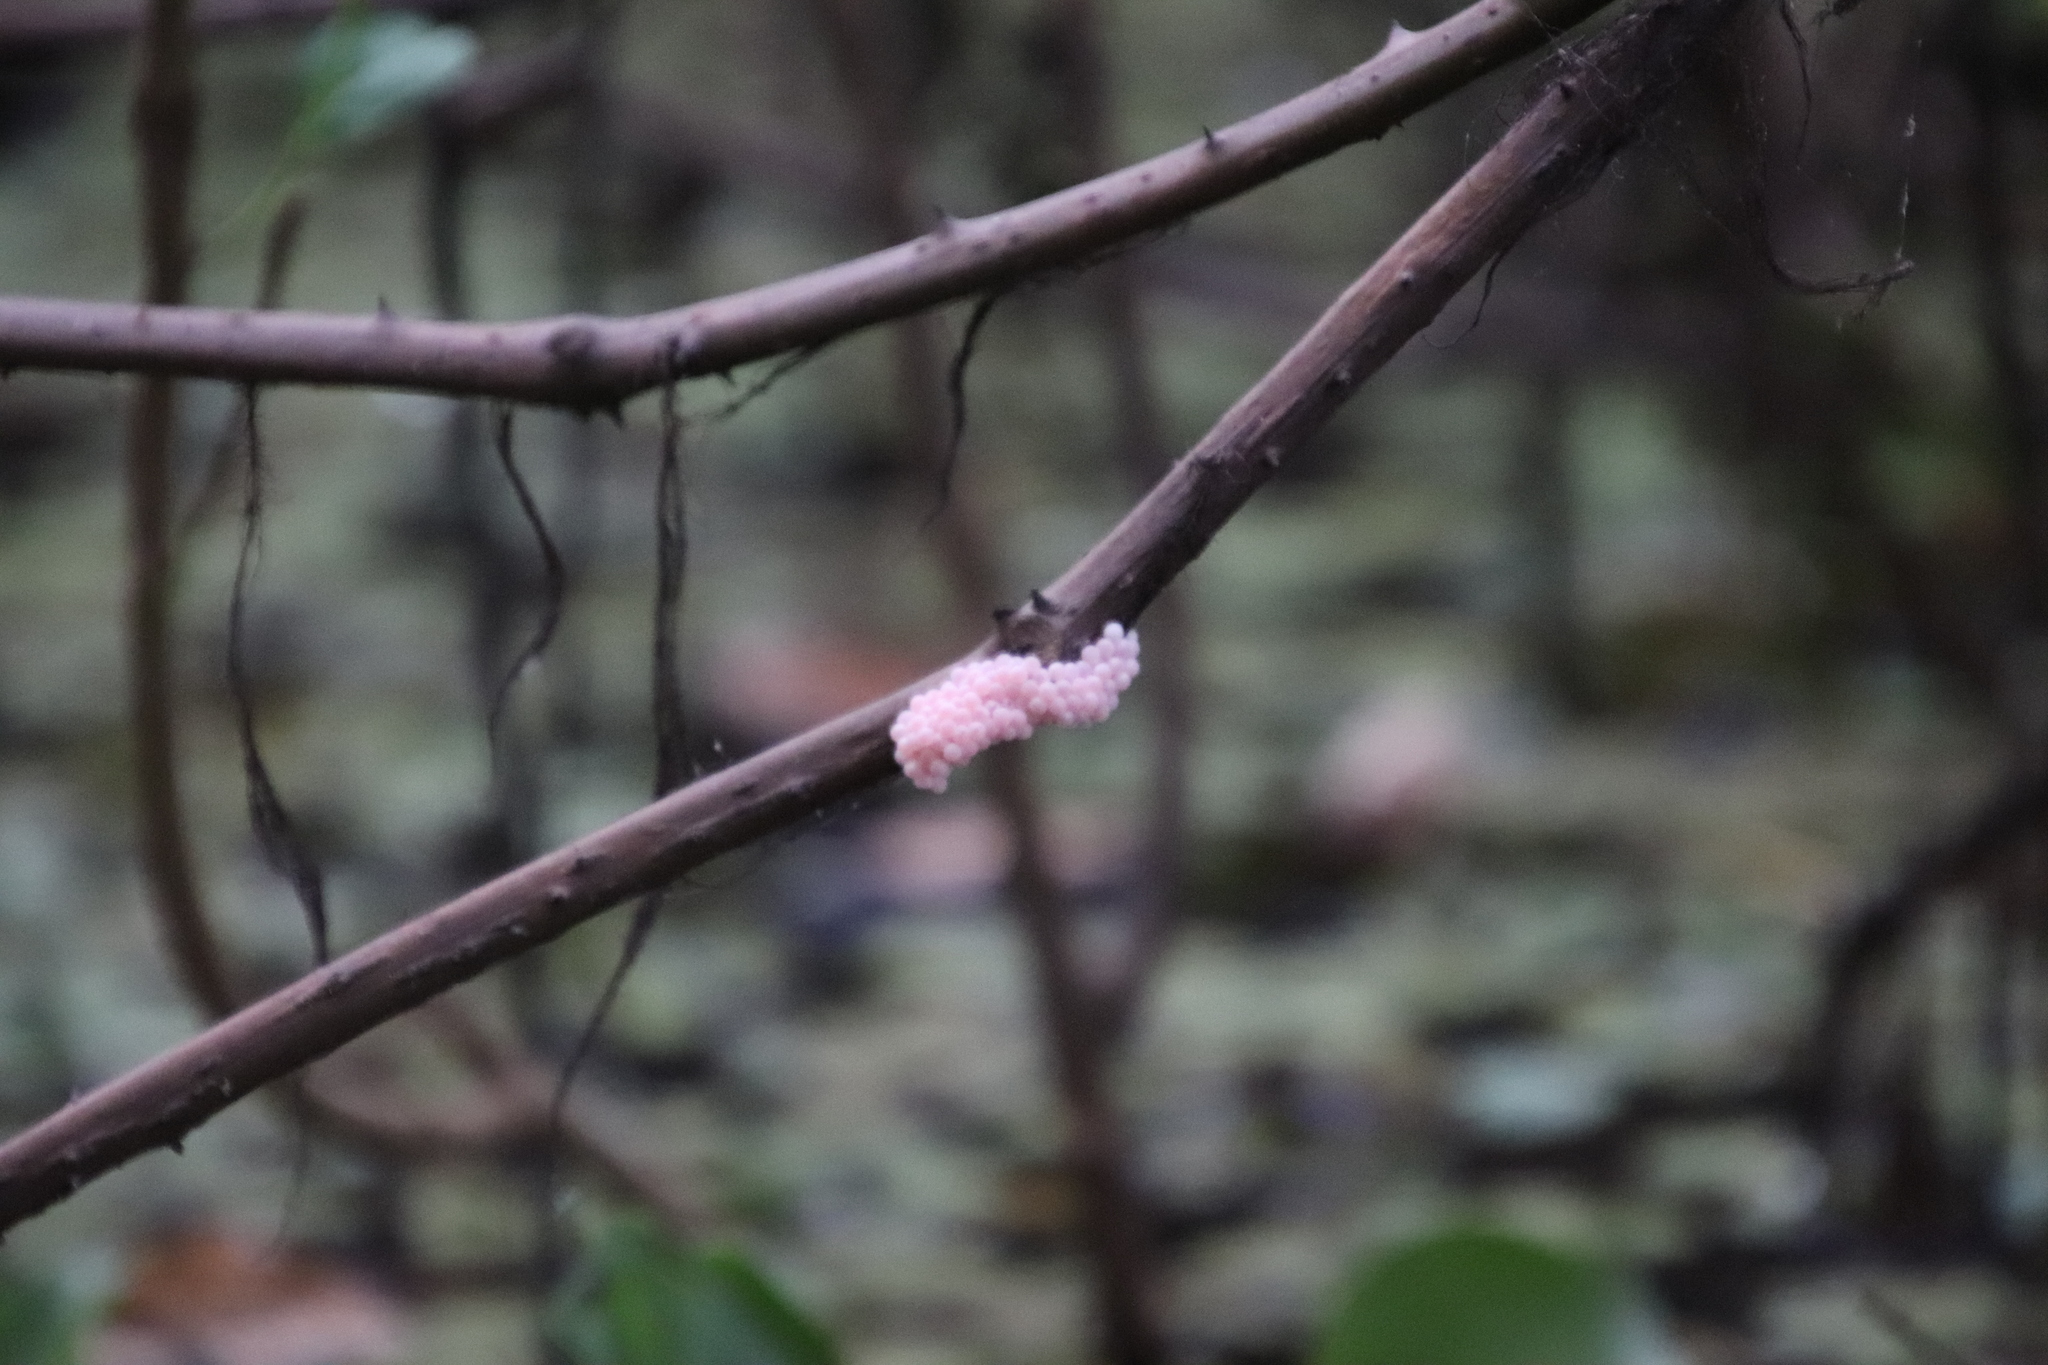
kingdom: Animalia
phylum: Mollusca
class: Gastropoda
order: Architaenioglossa
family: Ampullariidae
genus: Pomacea
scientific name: Pomacea
